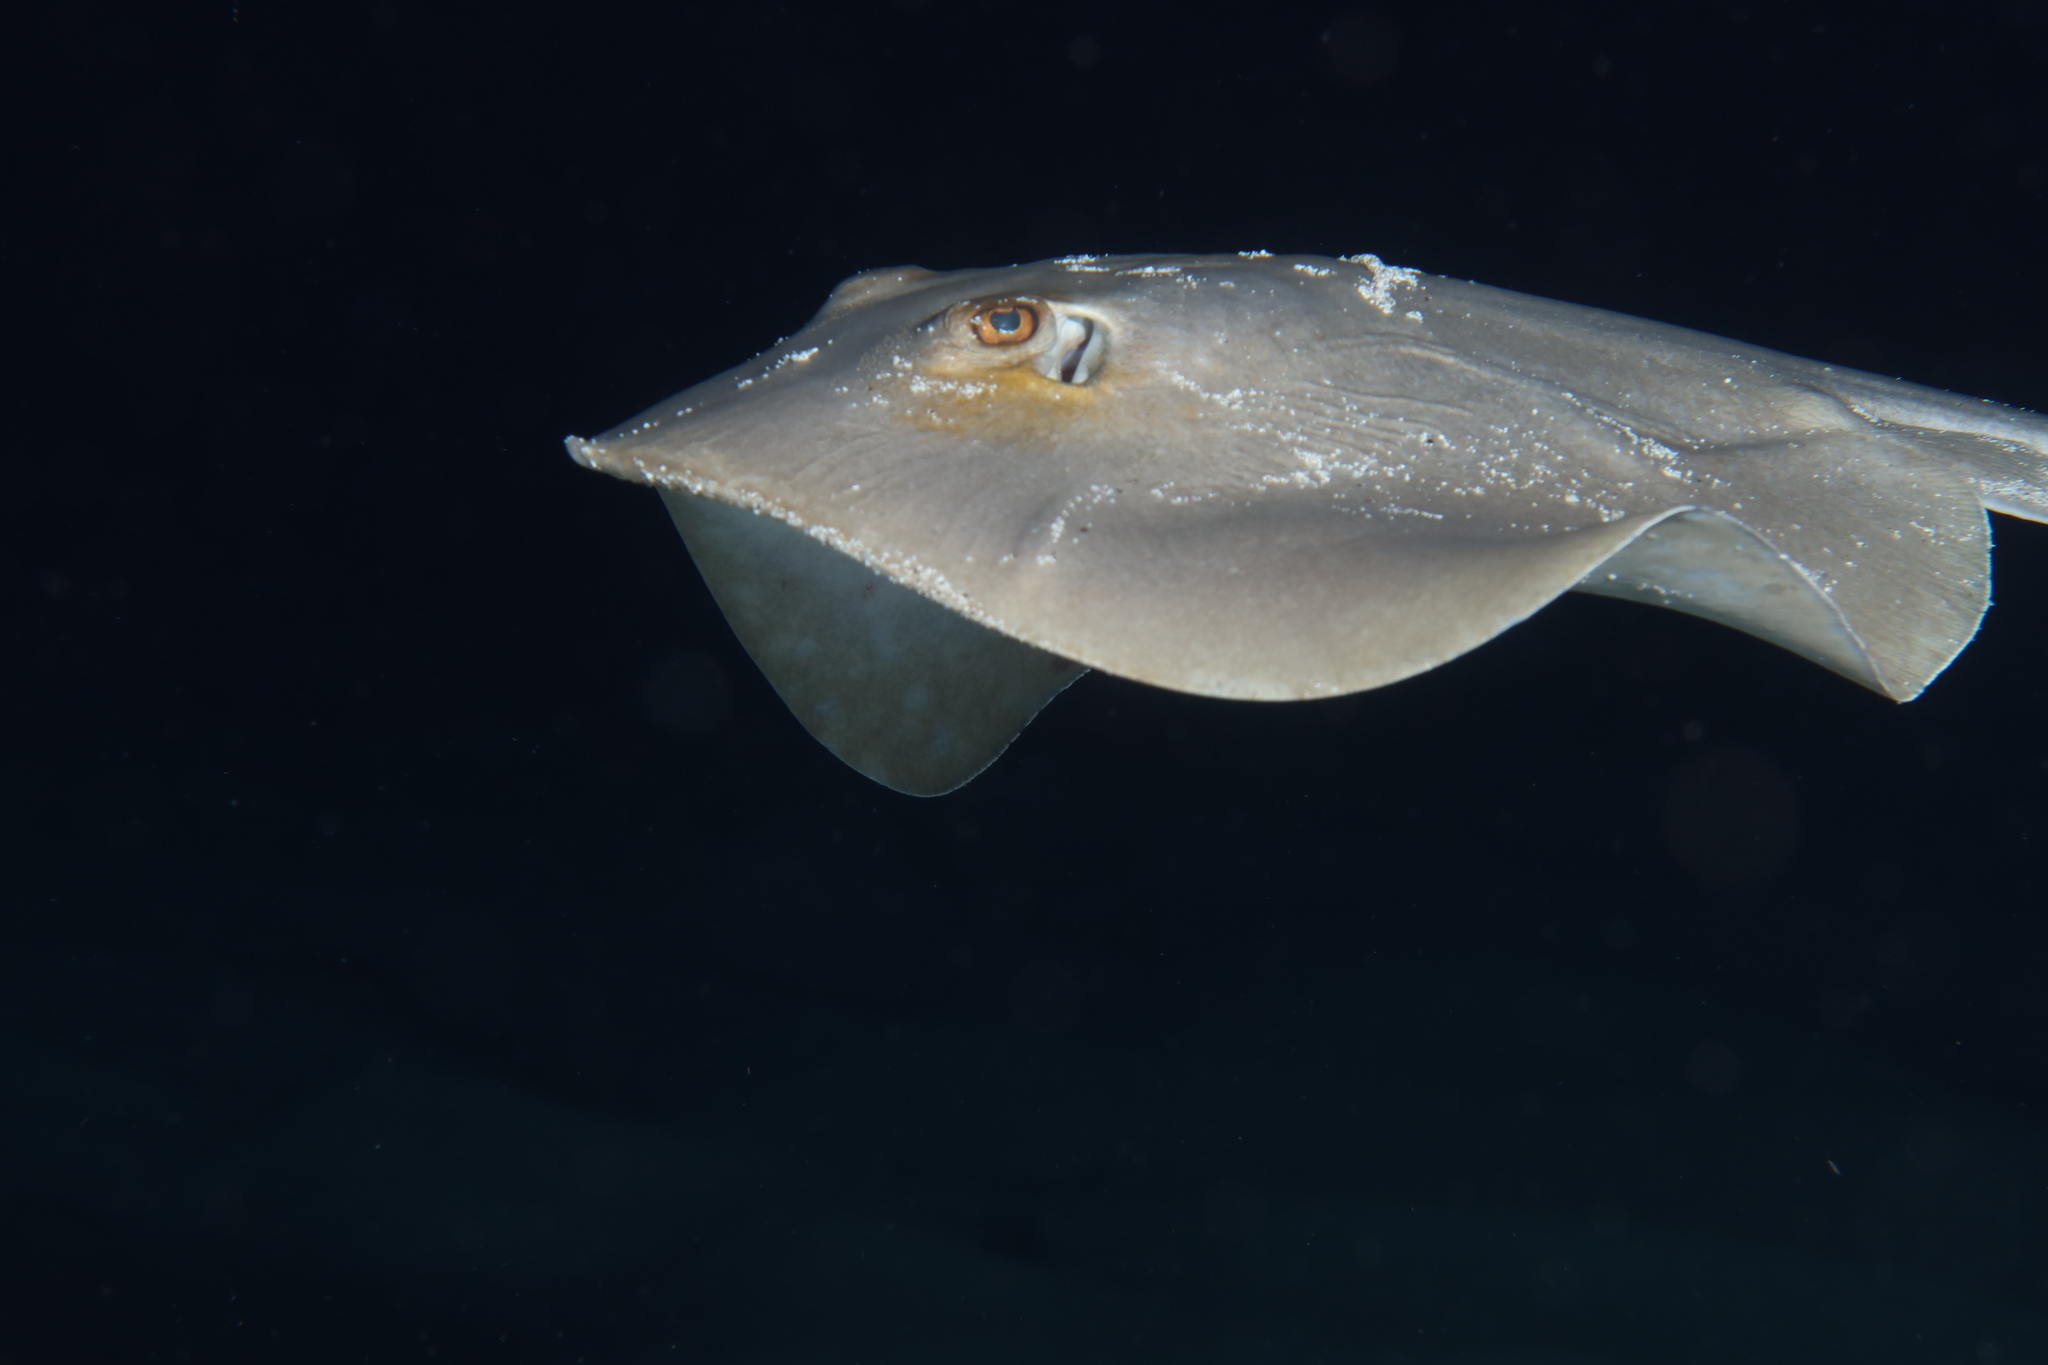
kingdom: Animalia
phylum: Chordata
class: Elasmobranchii
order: Myliobatiformes
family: Dasyatidae
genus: Dasyatis
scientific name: Dasyatis pastinaca
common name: Common stingray
